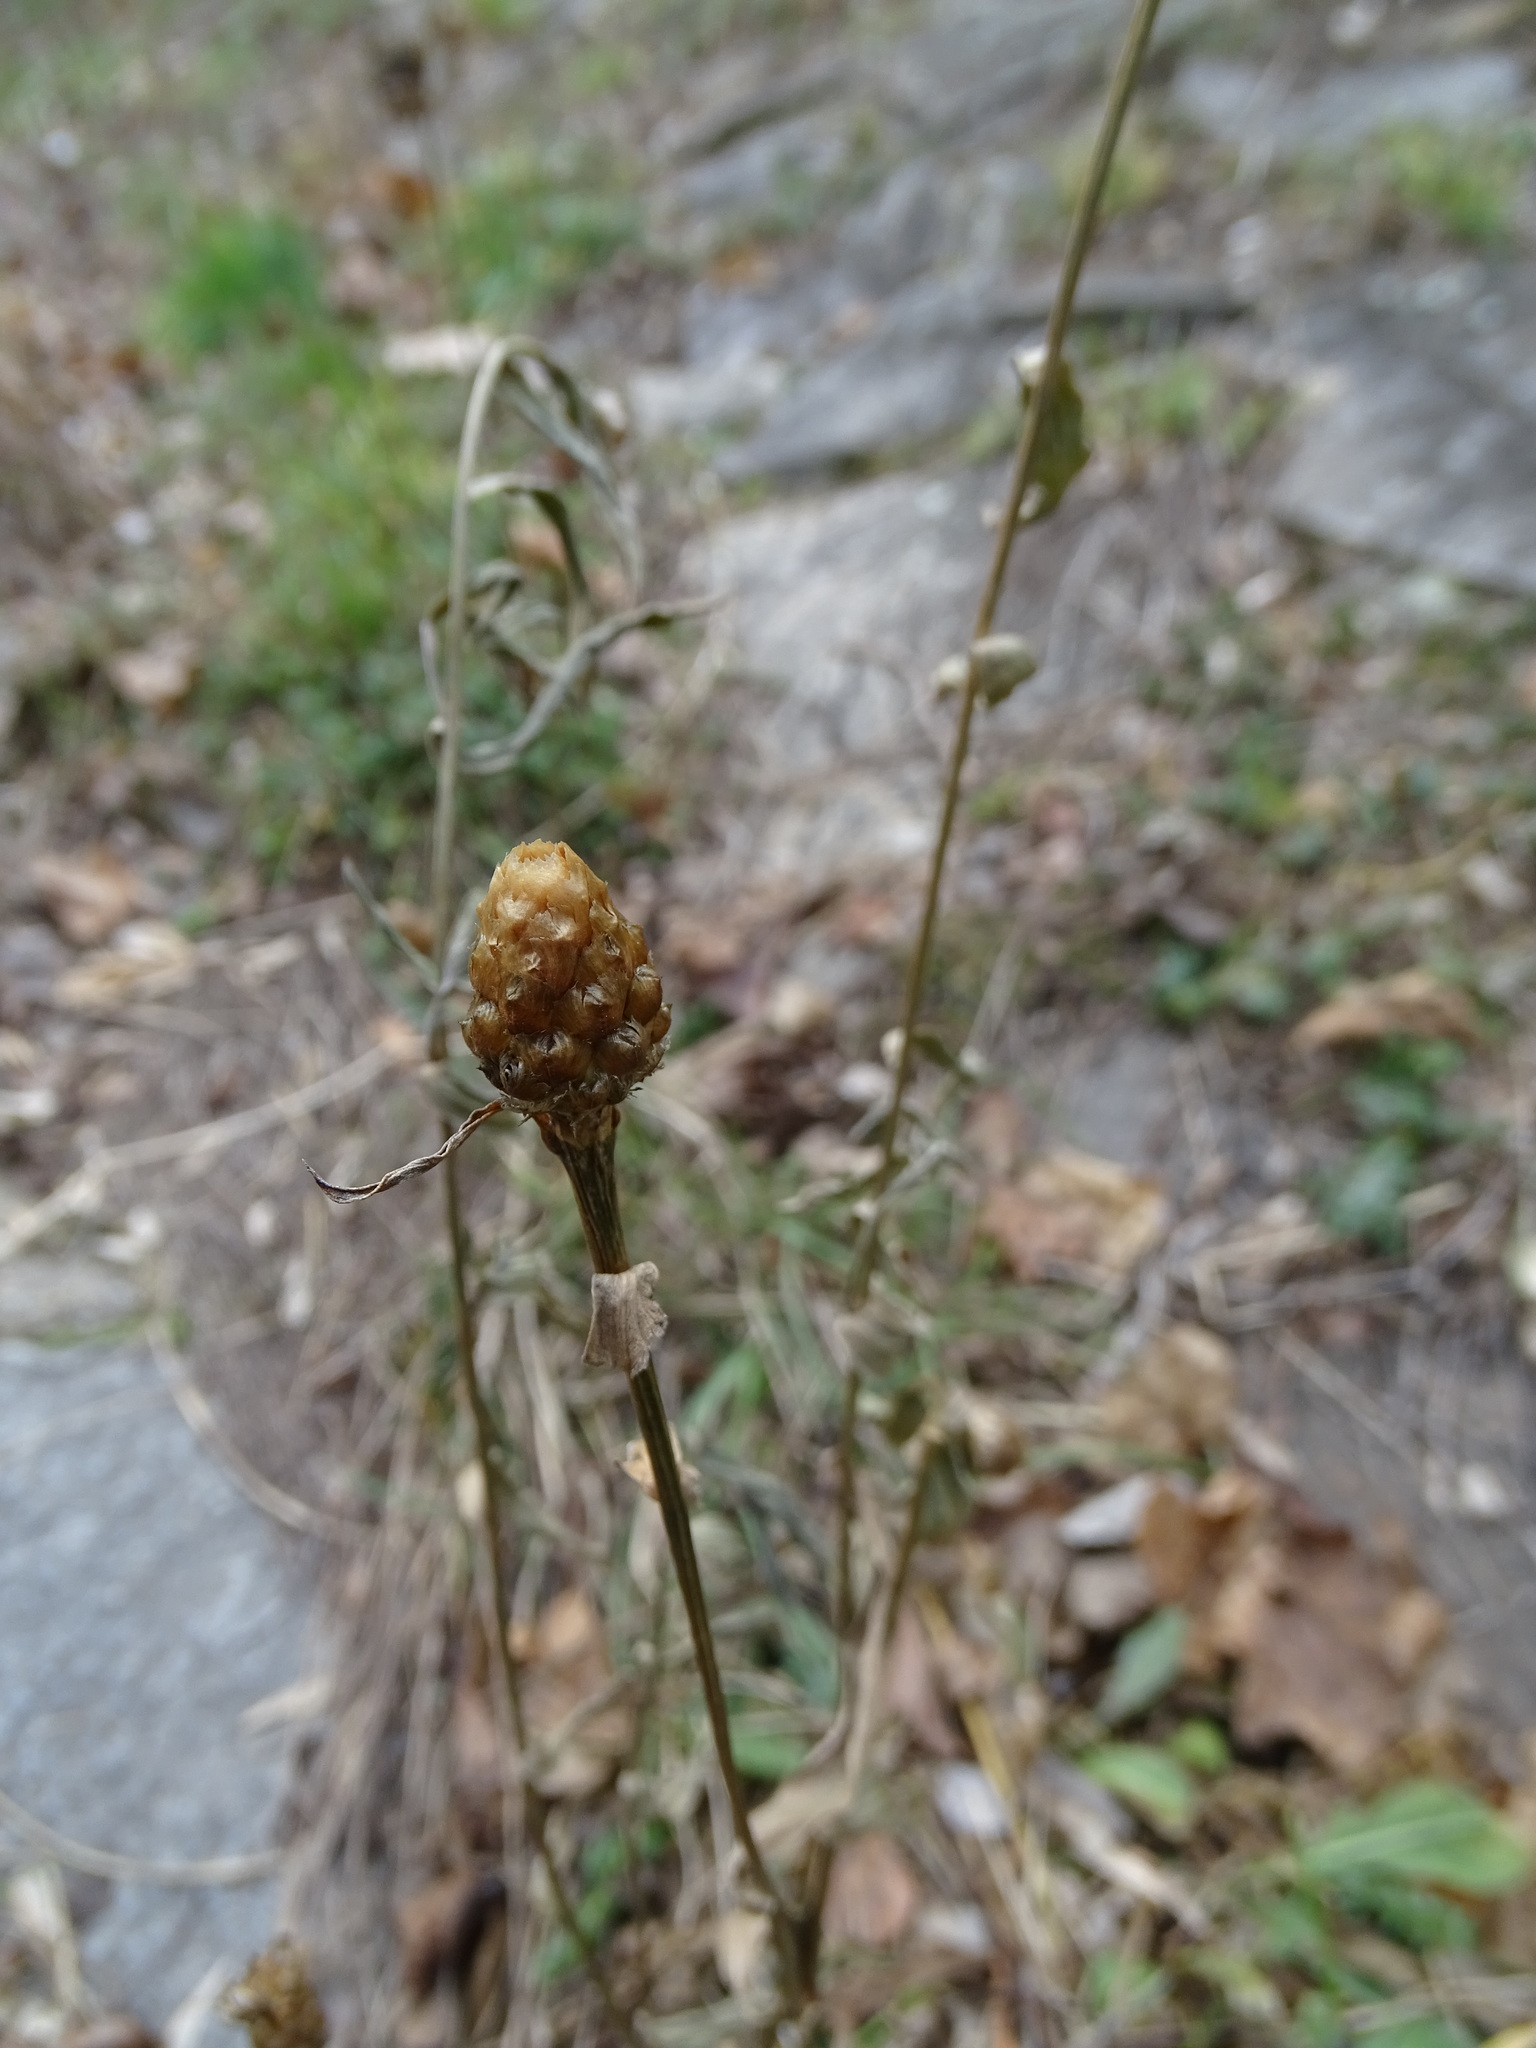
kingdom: Plantae
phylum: Tracheophyta
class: Magnoliopsida
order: Asterales
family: Asteraceae
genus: Centaurea
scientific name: Centaurea jacea
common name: Brown knapweed
